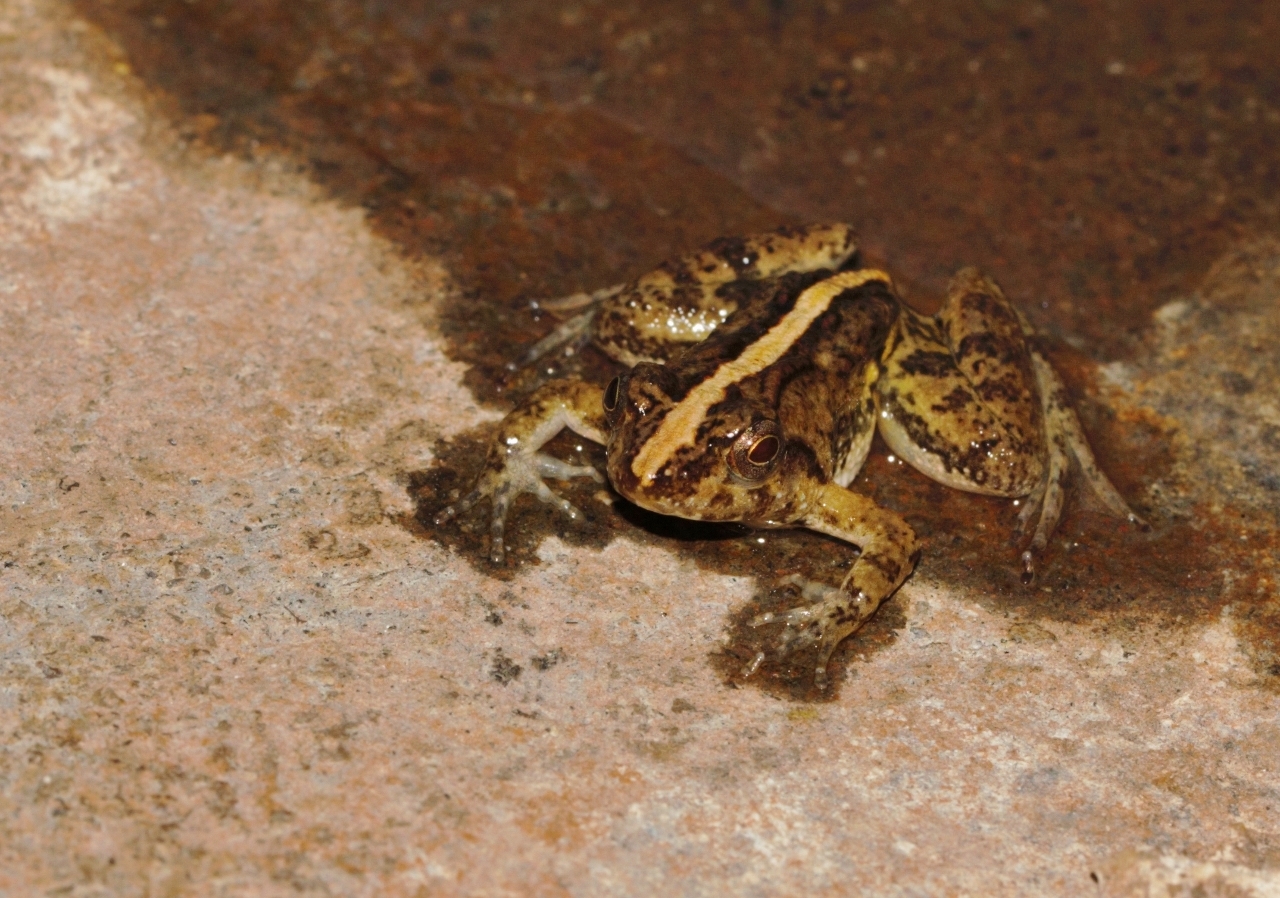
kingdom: Animalia
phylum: Chordata
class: Amphibia
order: Anura
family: Phrynobatrachidae
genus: Phrynobatrachus
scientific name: Phrynobatrachus acridoides
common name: East african puddle frog
